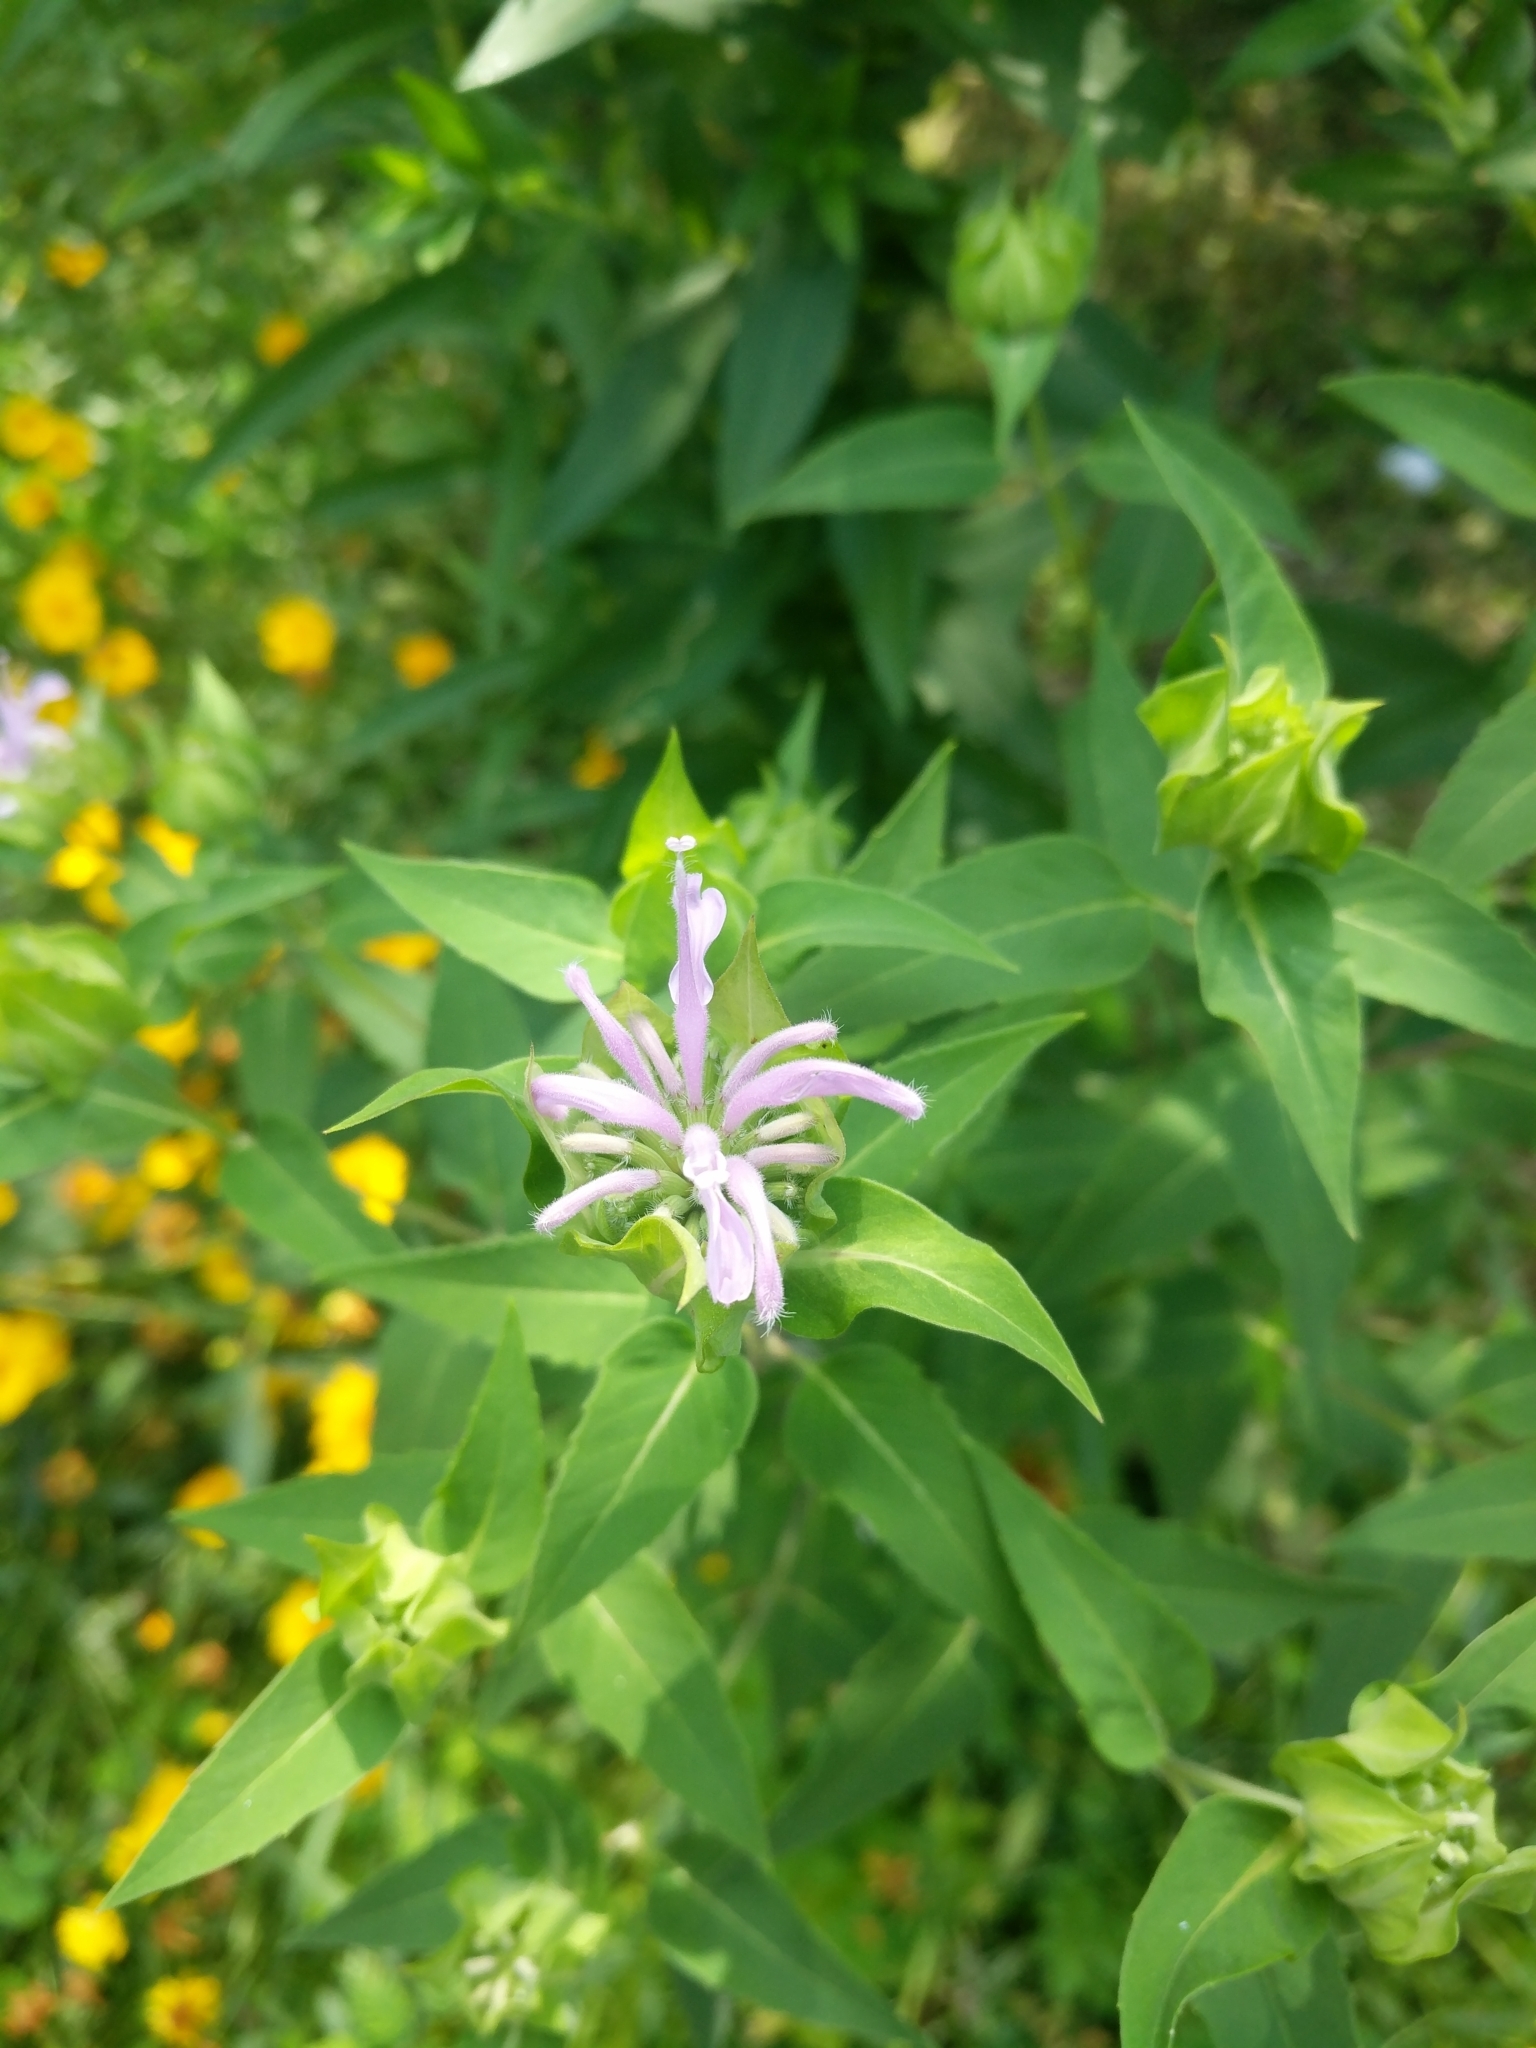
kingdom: Plantae
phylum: Tracheophyta
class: Magnoliopsida
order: Lamiales
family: Lamiaceae
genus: Monarda
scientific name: Monarda fistulosa
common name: Purple beebalm
